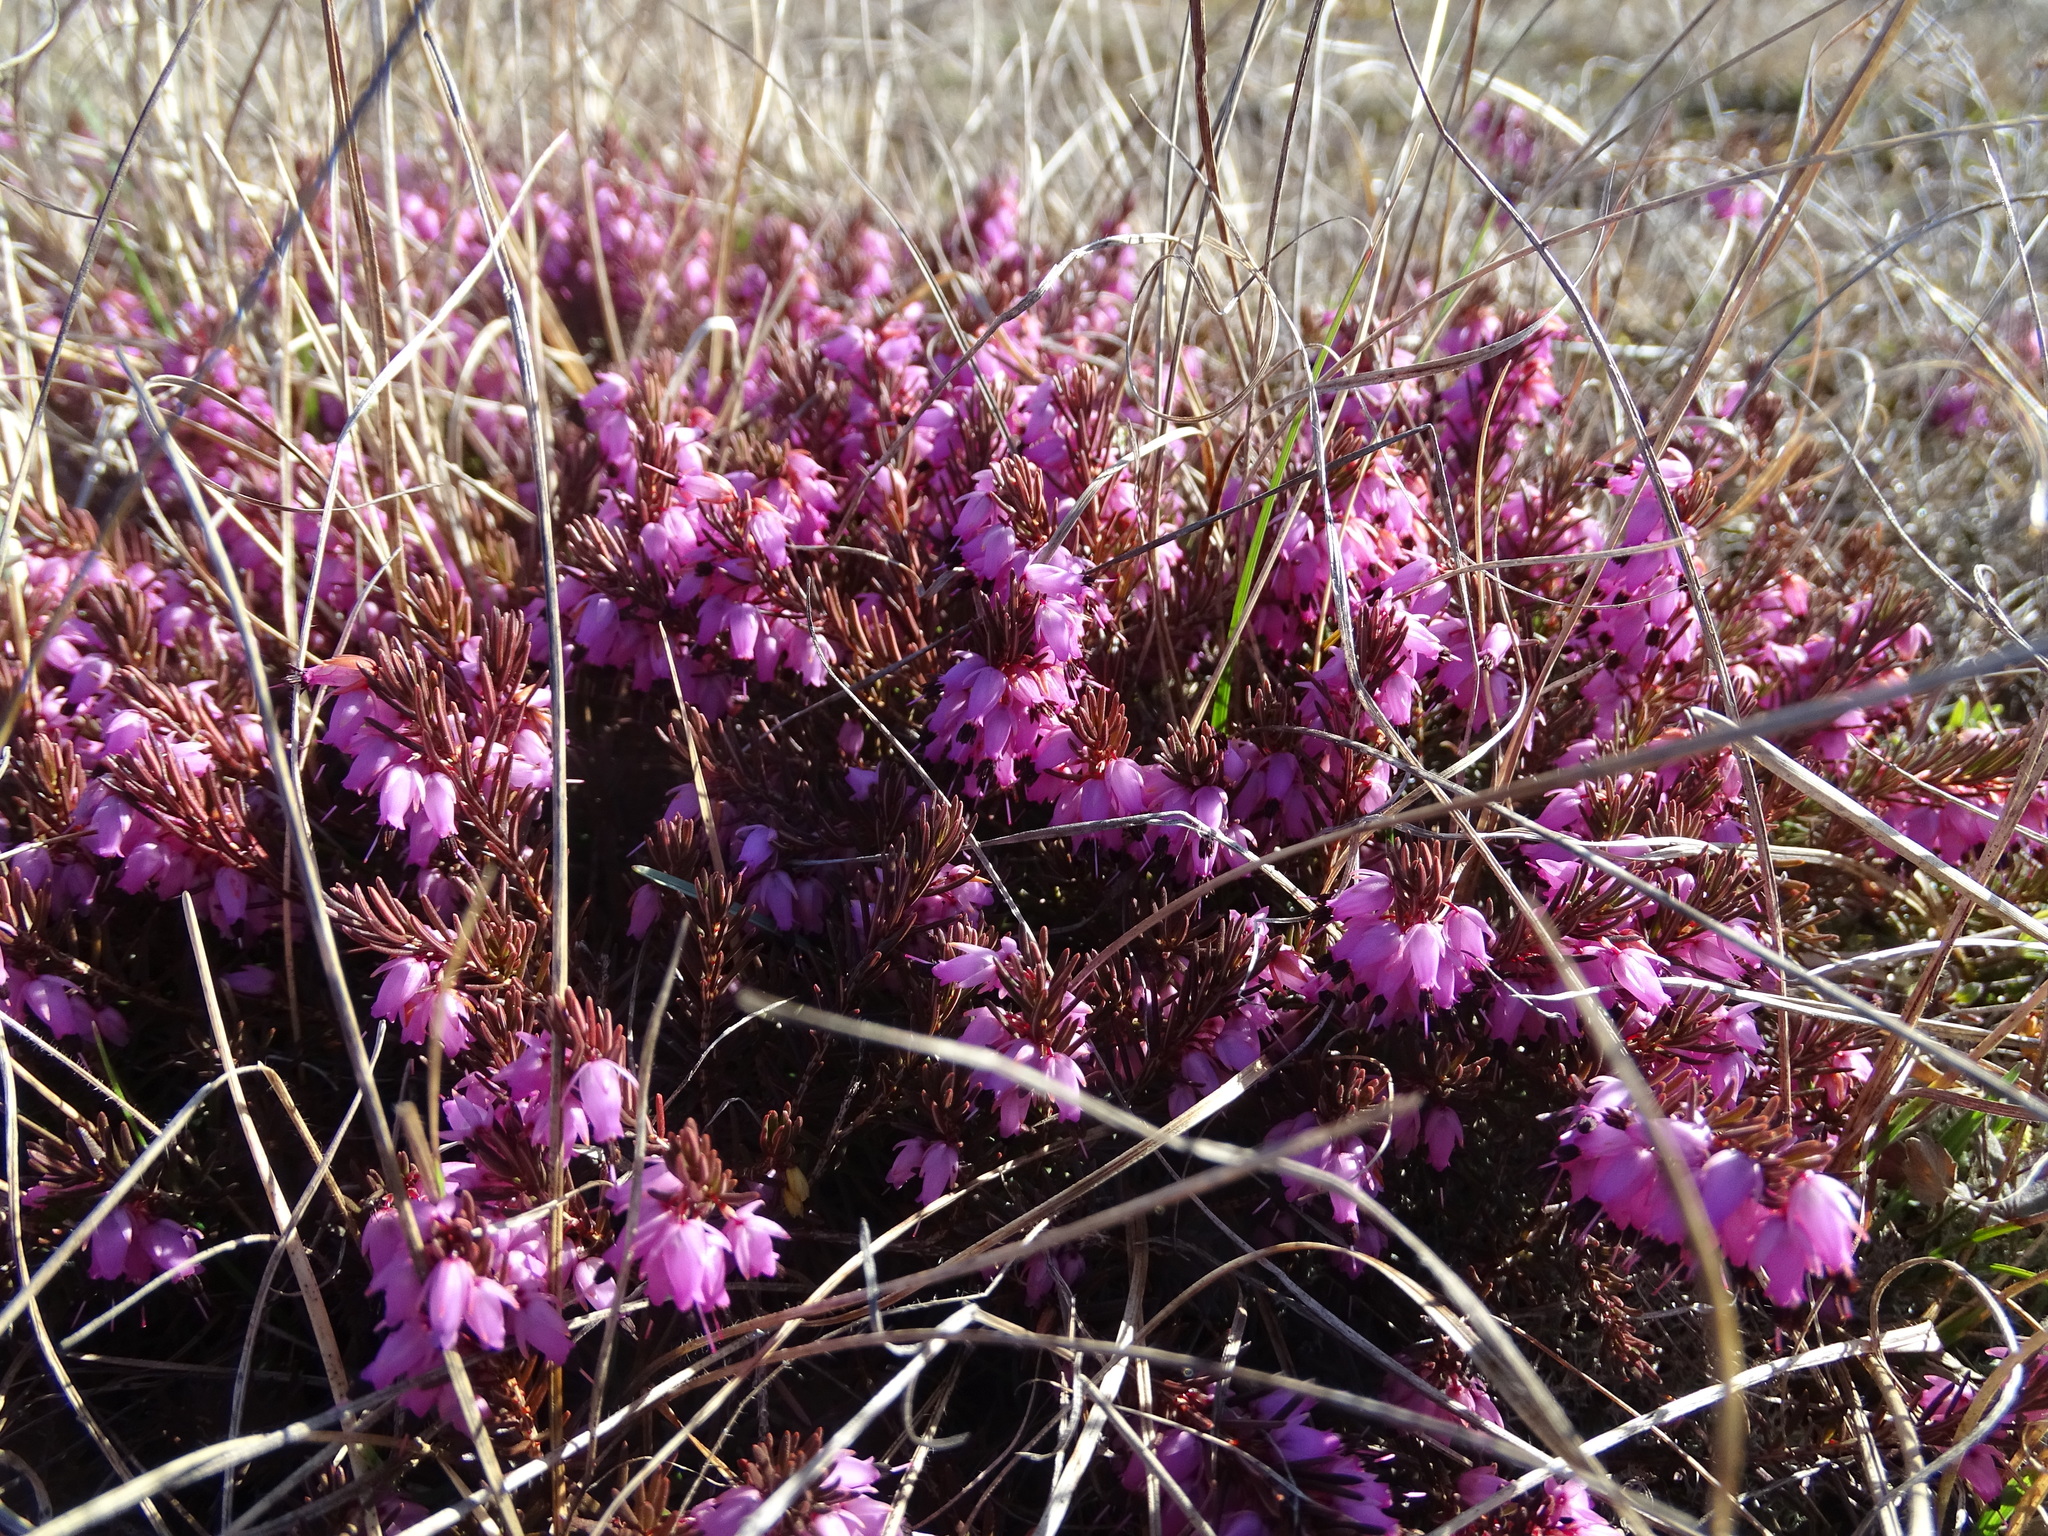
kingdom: Plantae
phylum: Tracheophyta
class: Magnoliopsida
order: Ericales
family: Ericaceae
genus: Erica
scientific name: Erica carnea
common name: Winter heath
